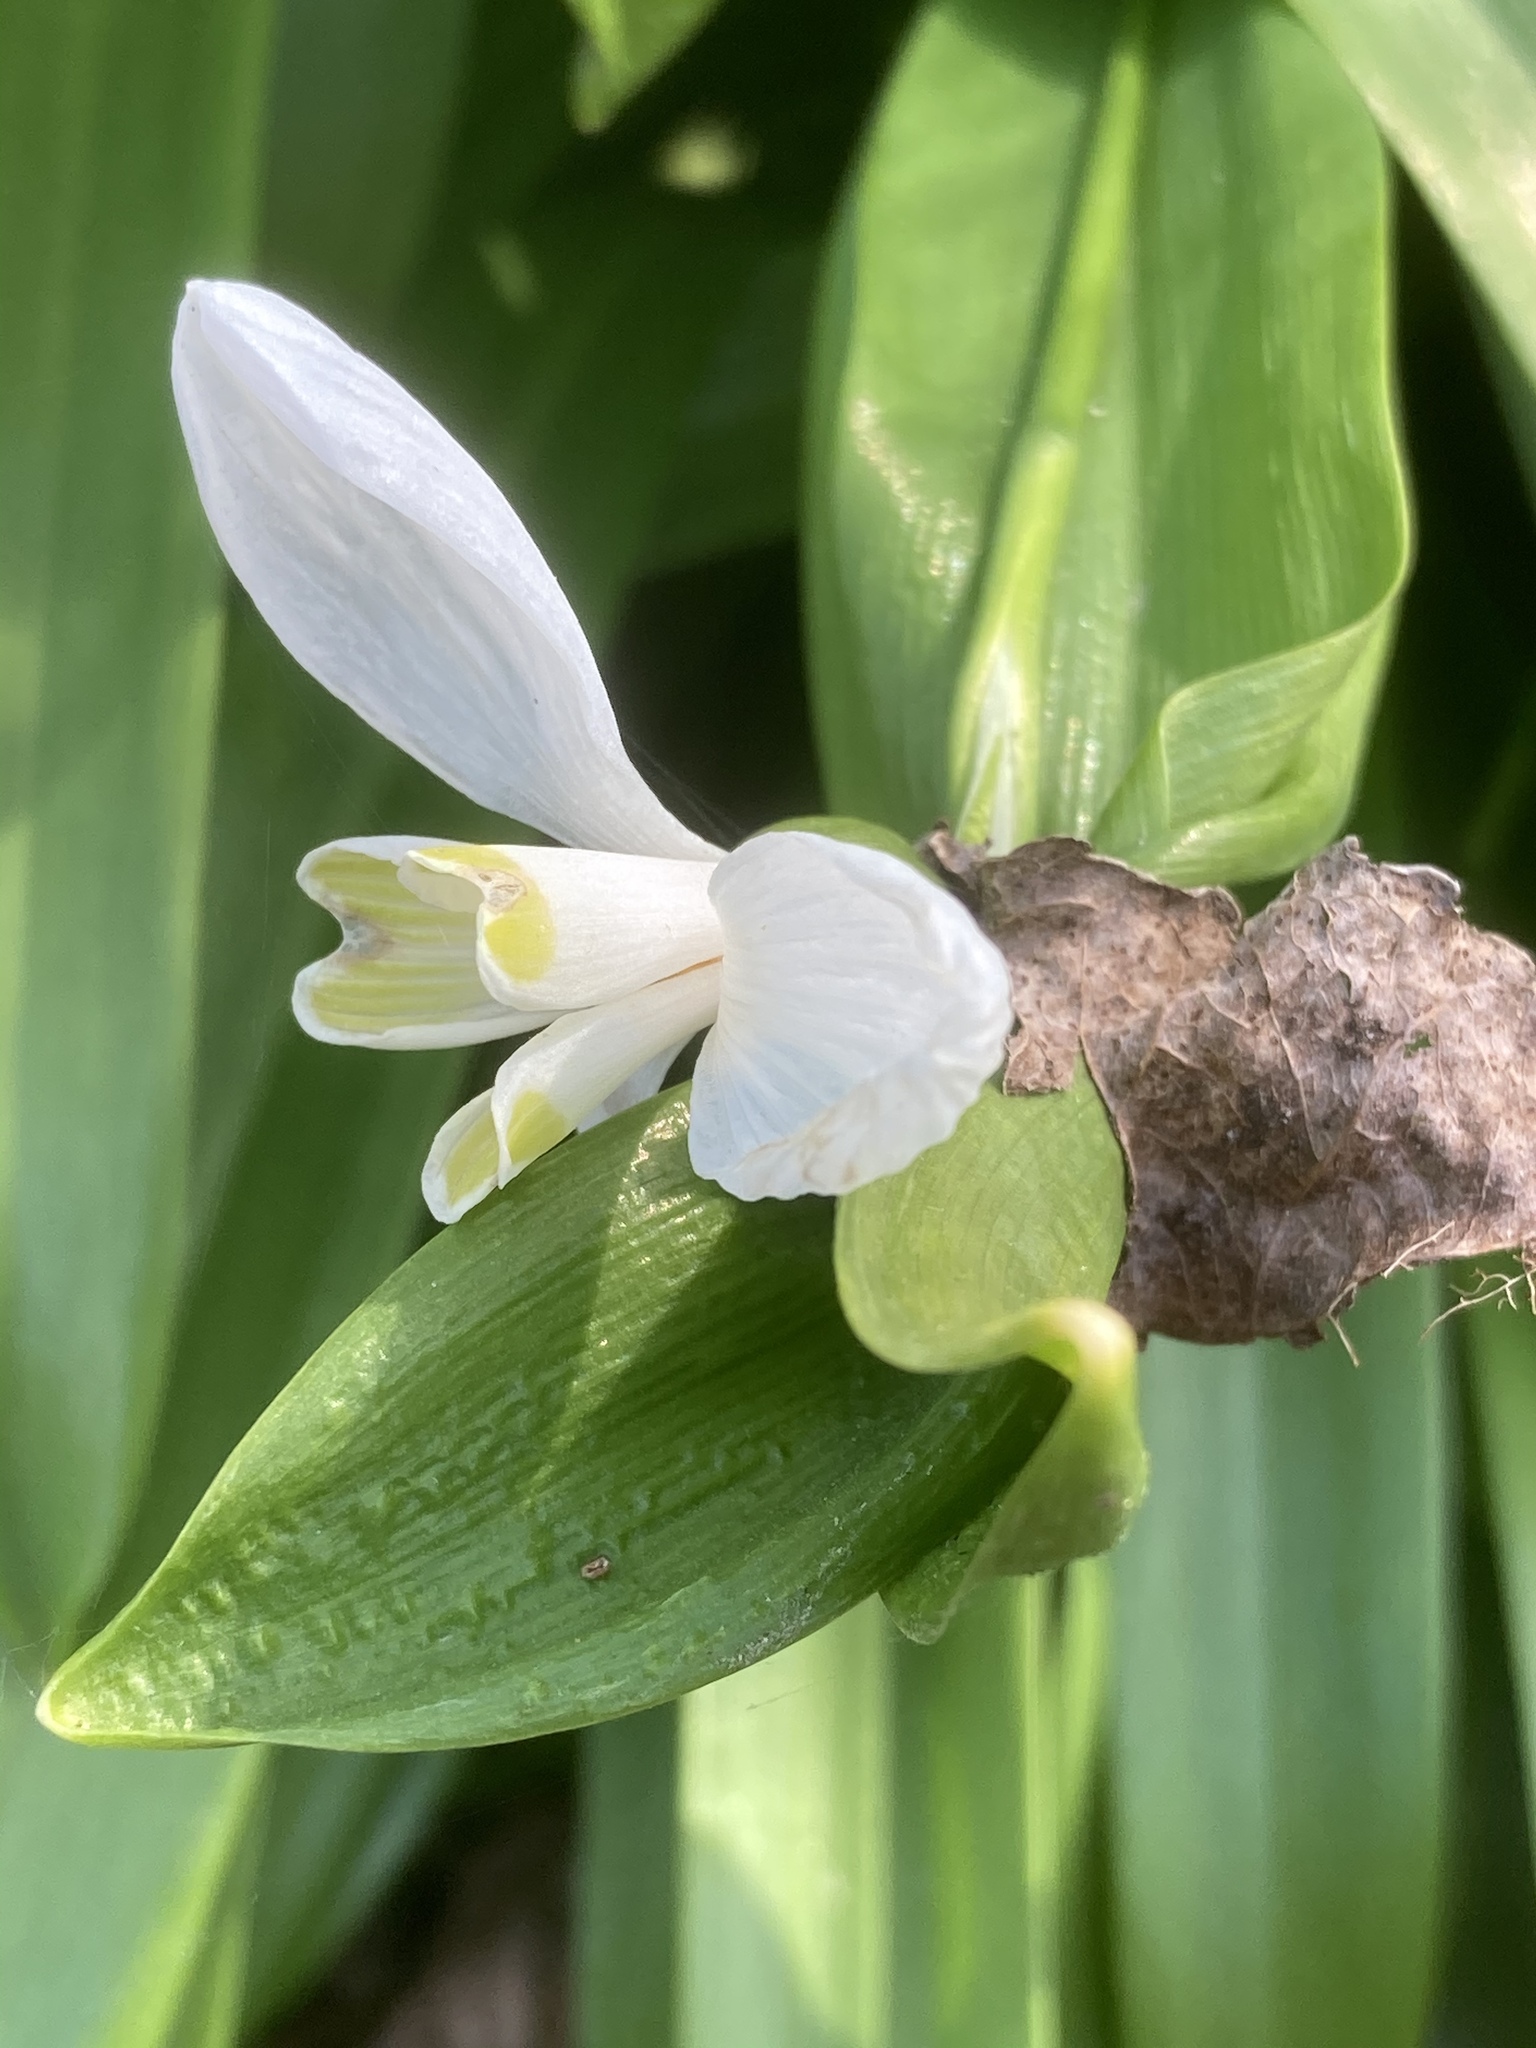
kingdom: Plantae
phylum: Tracheophyta
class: Liliopsida
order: Asparagales
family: Amaryllidaceae
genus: Galanthus
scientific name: Galanthus woronowii
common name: Green snowdrop
